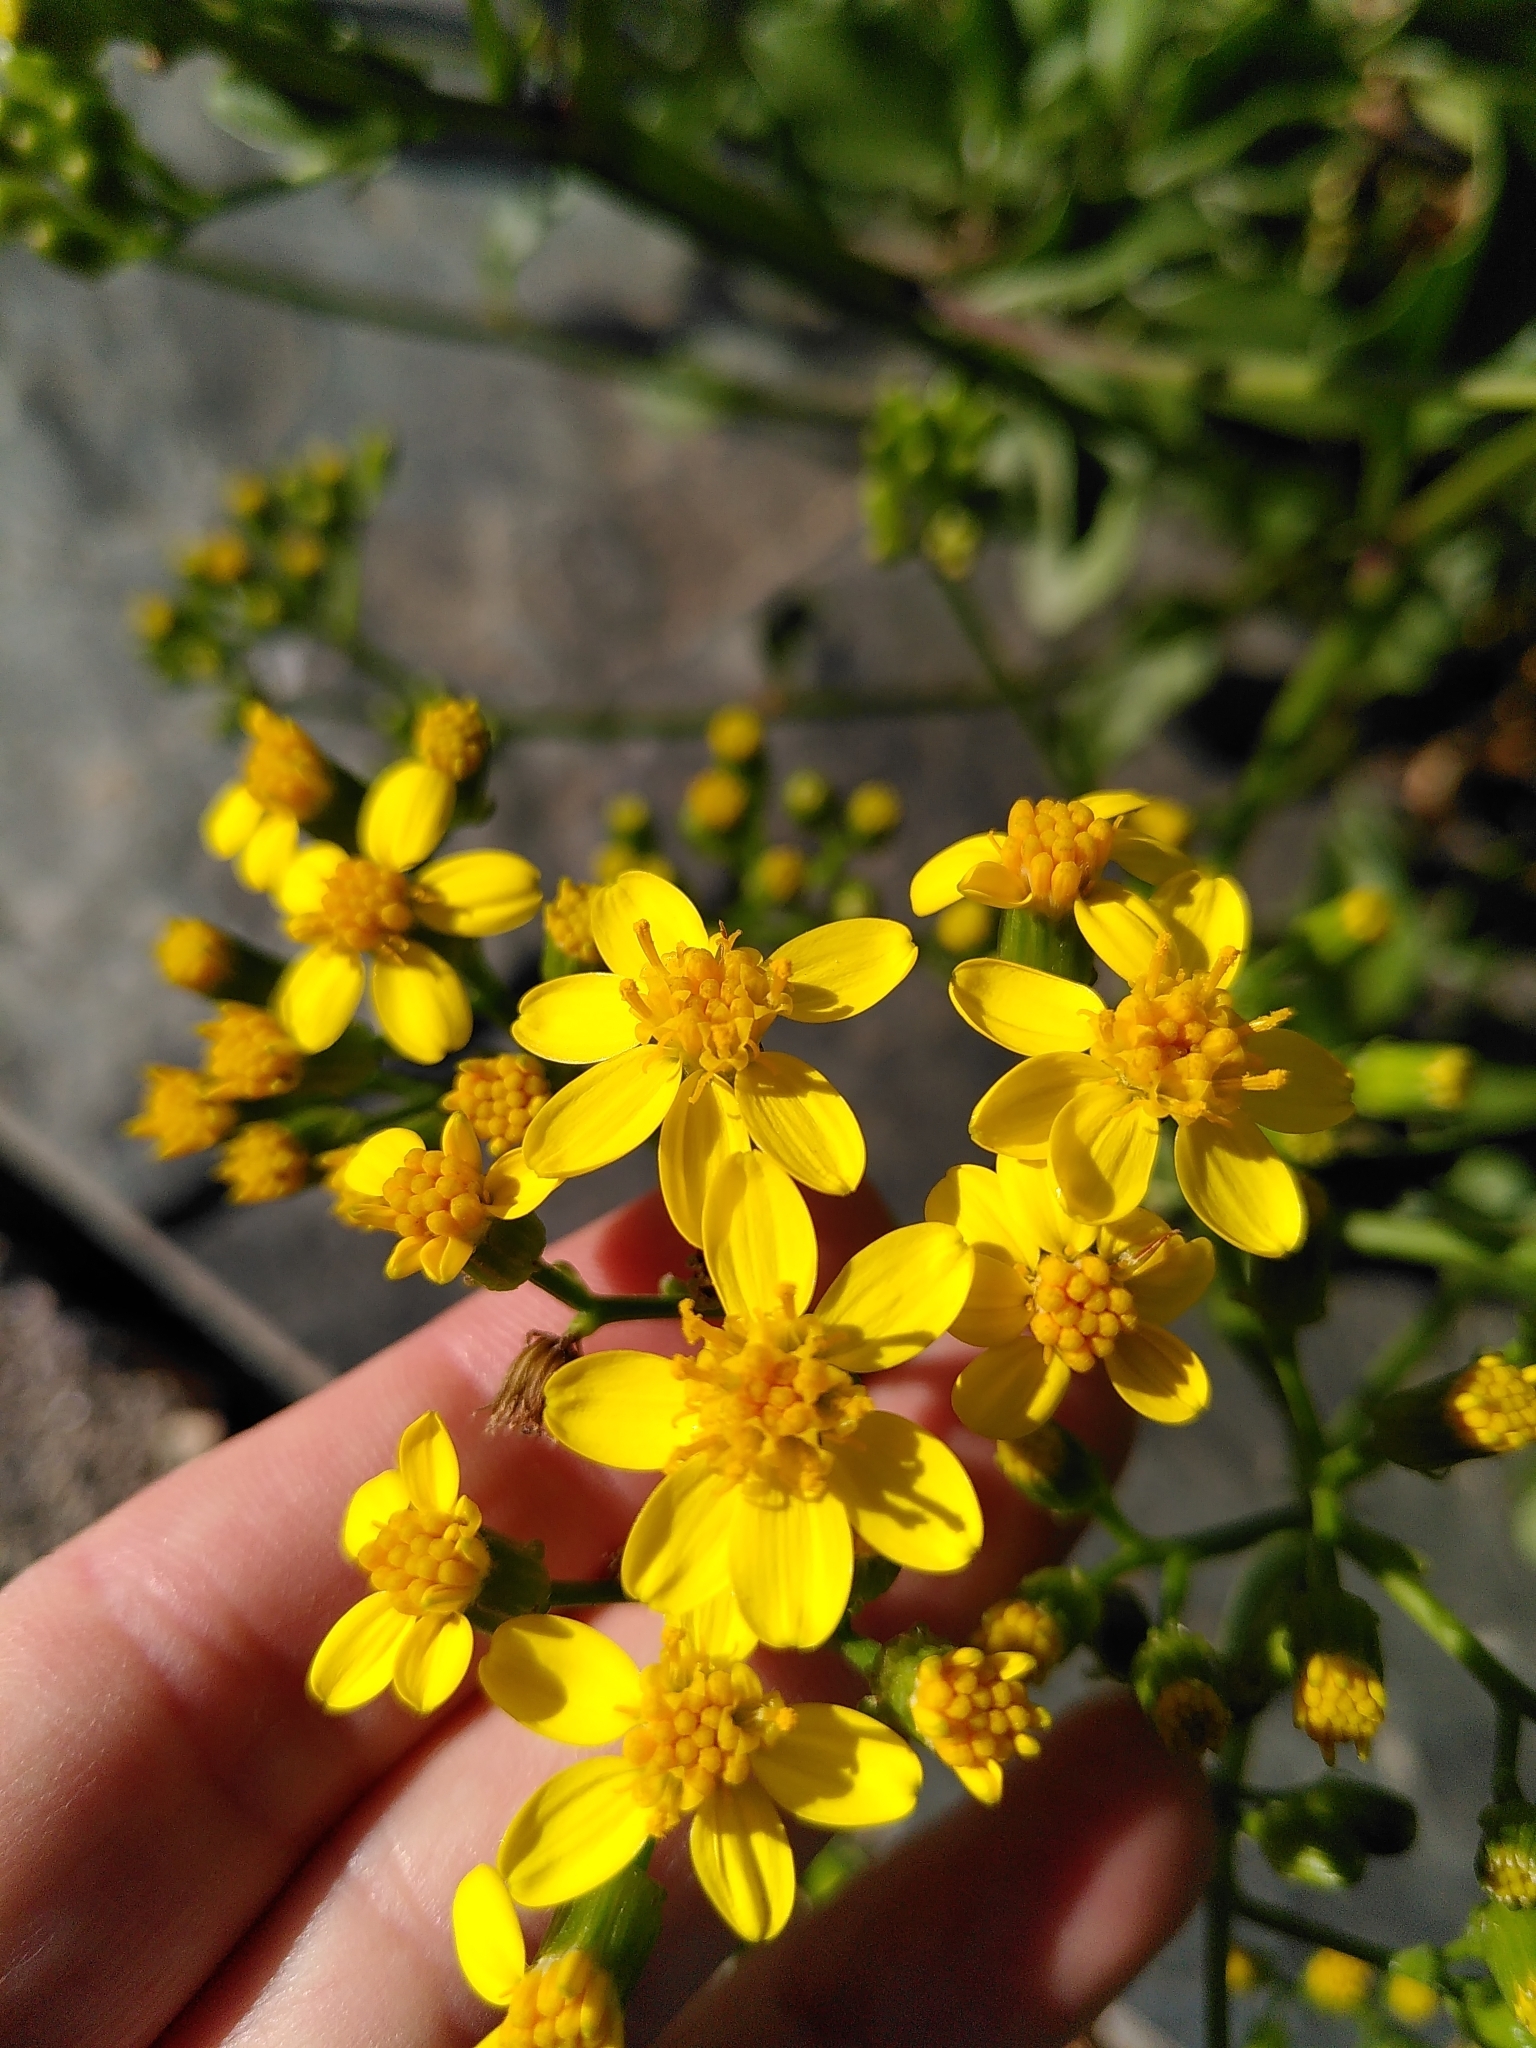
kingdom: Plantae
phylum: Tracheophyta
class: Magnoliopsida
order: Asterales
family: Asteraceae
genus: Senecio
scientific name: Senecio angulatus
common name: Climbing groundsel
